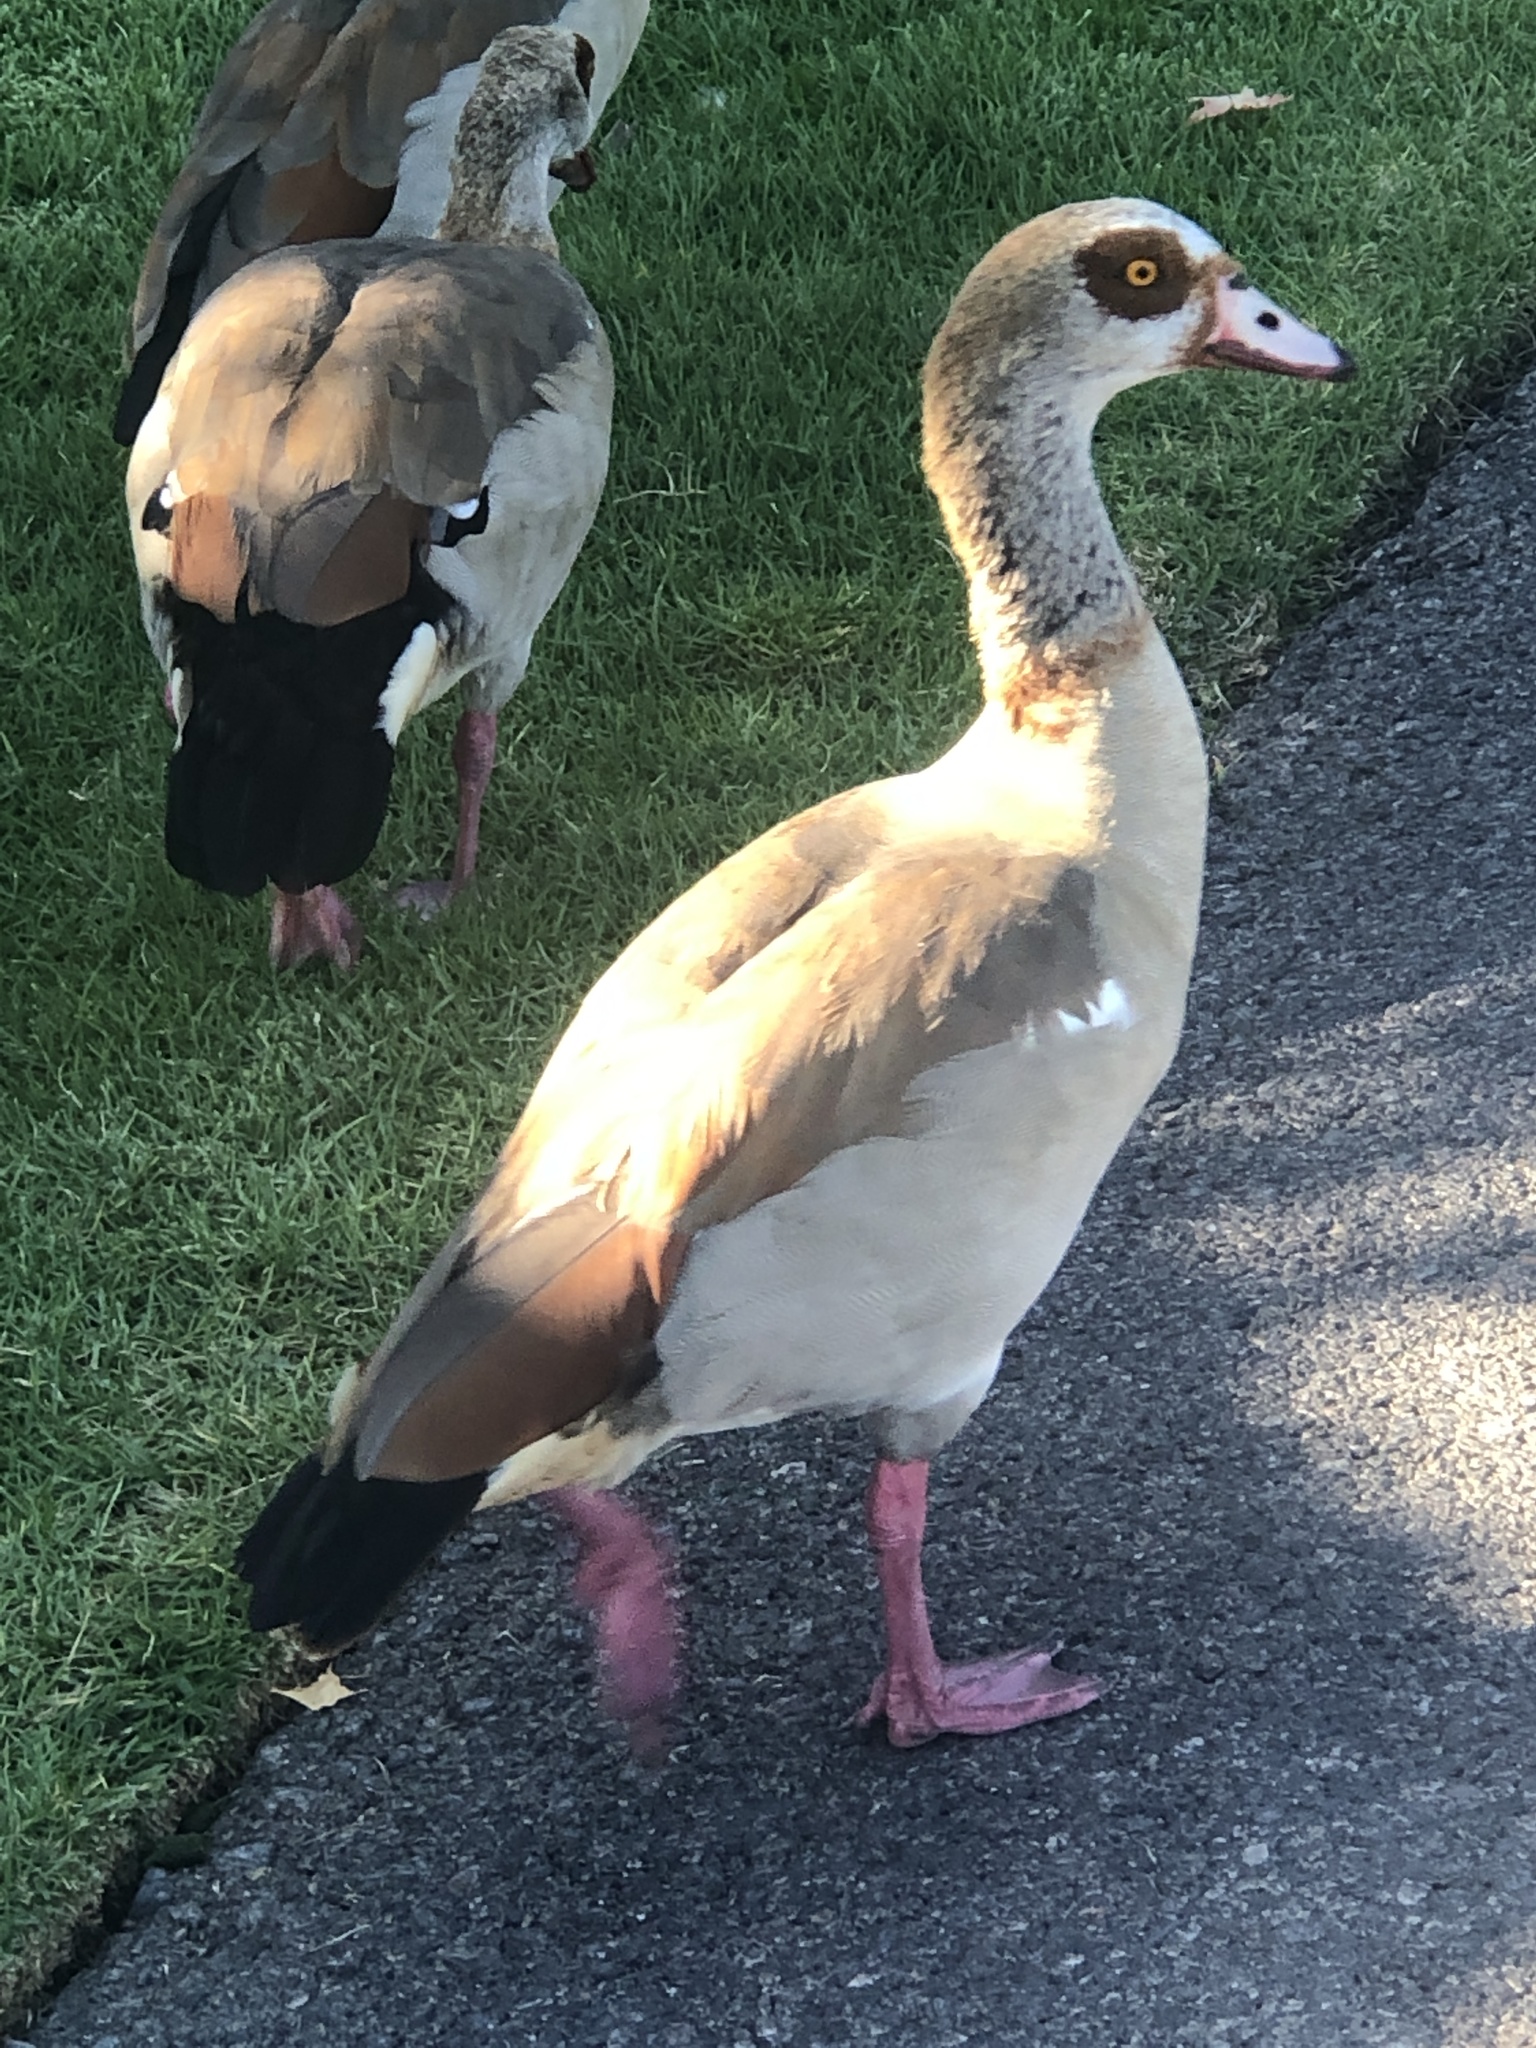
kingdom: Animalia
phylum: Chordata
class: Aves
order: Anseriformes
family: Anatidae
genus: Alopochen
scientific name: Alopochen aegyptiaca
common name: Egyptian goose
